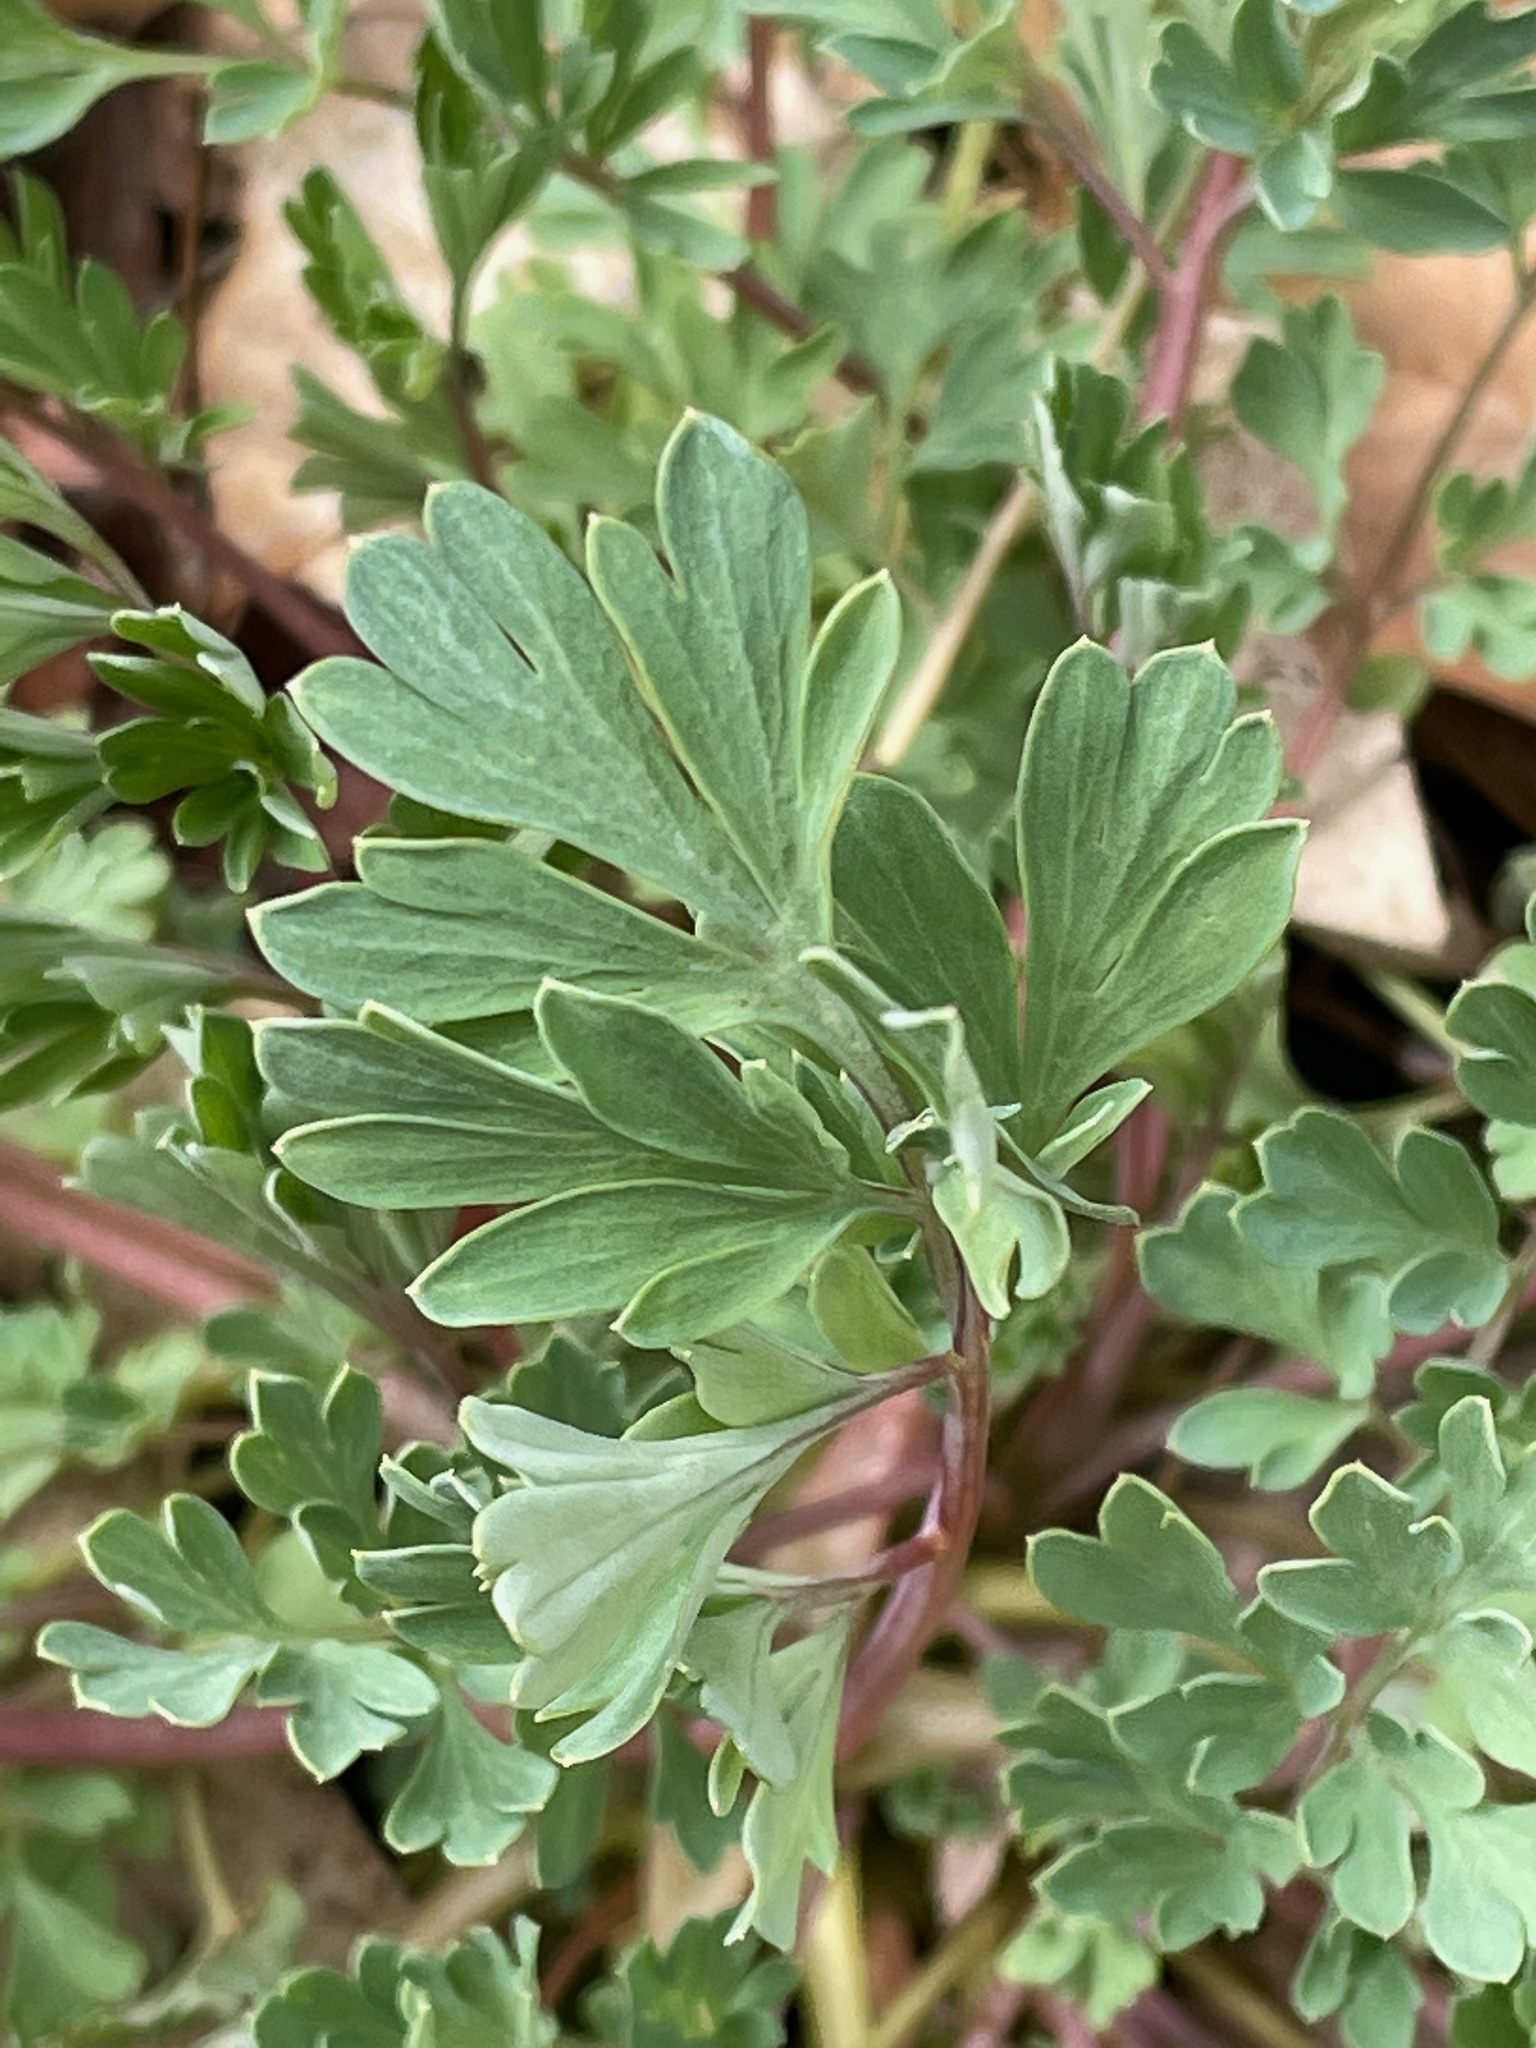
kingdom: Plantae
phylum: Tracheophyta
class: Magnoliopsida
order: Ranunculales
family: Papaveraceae
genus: Capnoides
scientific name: Capnoides sempervirens
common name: Rock harlequin
